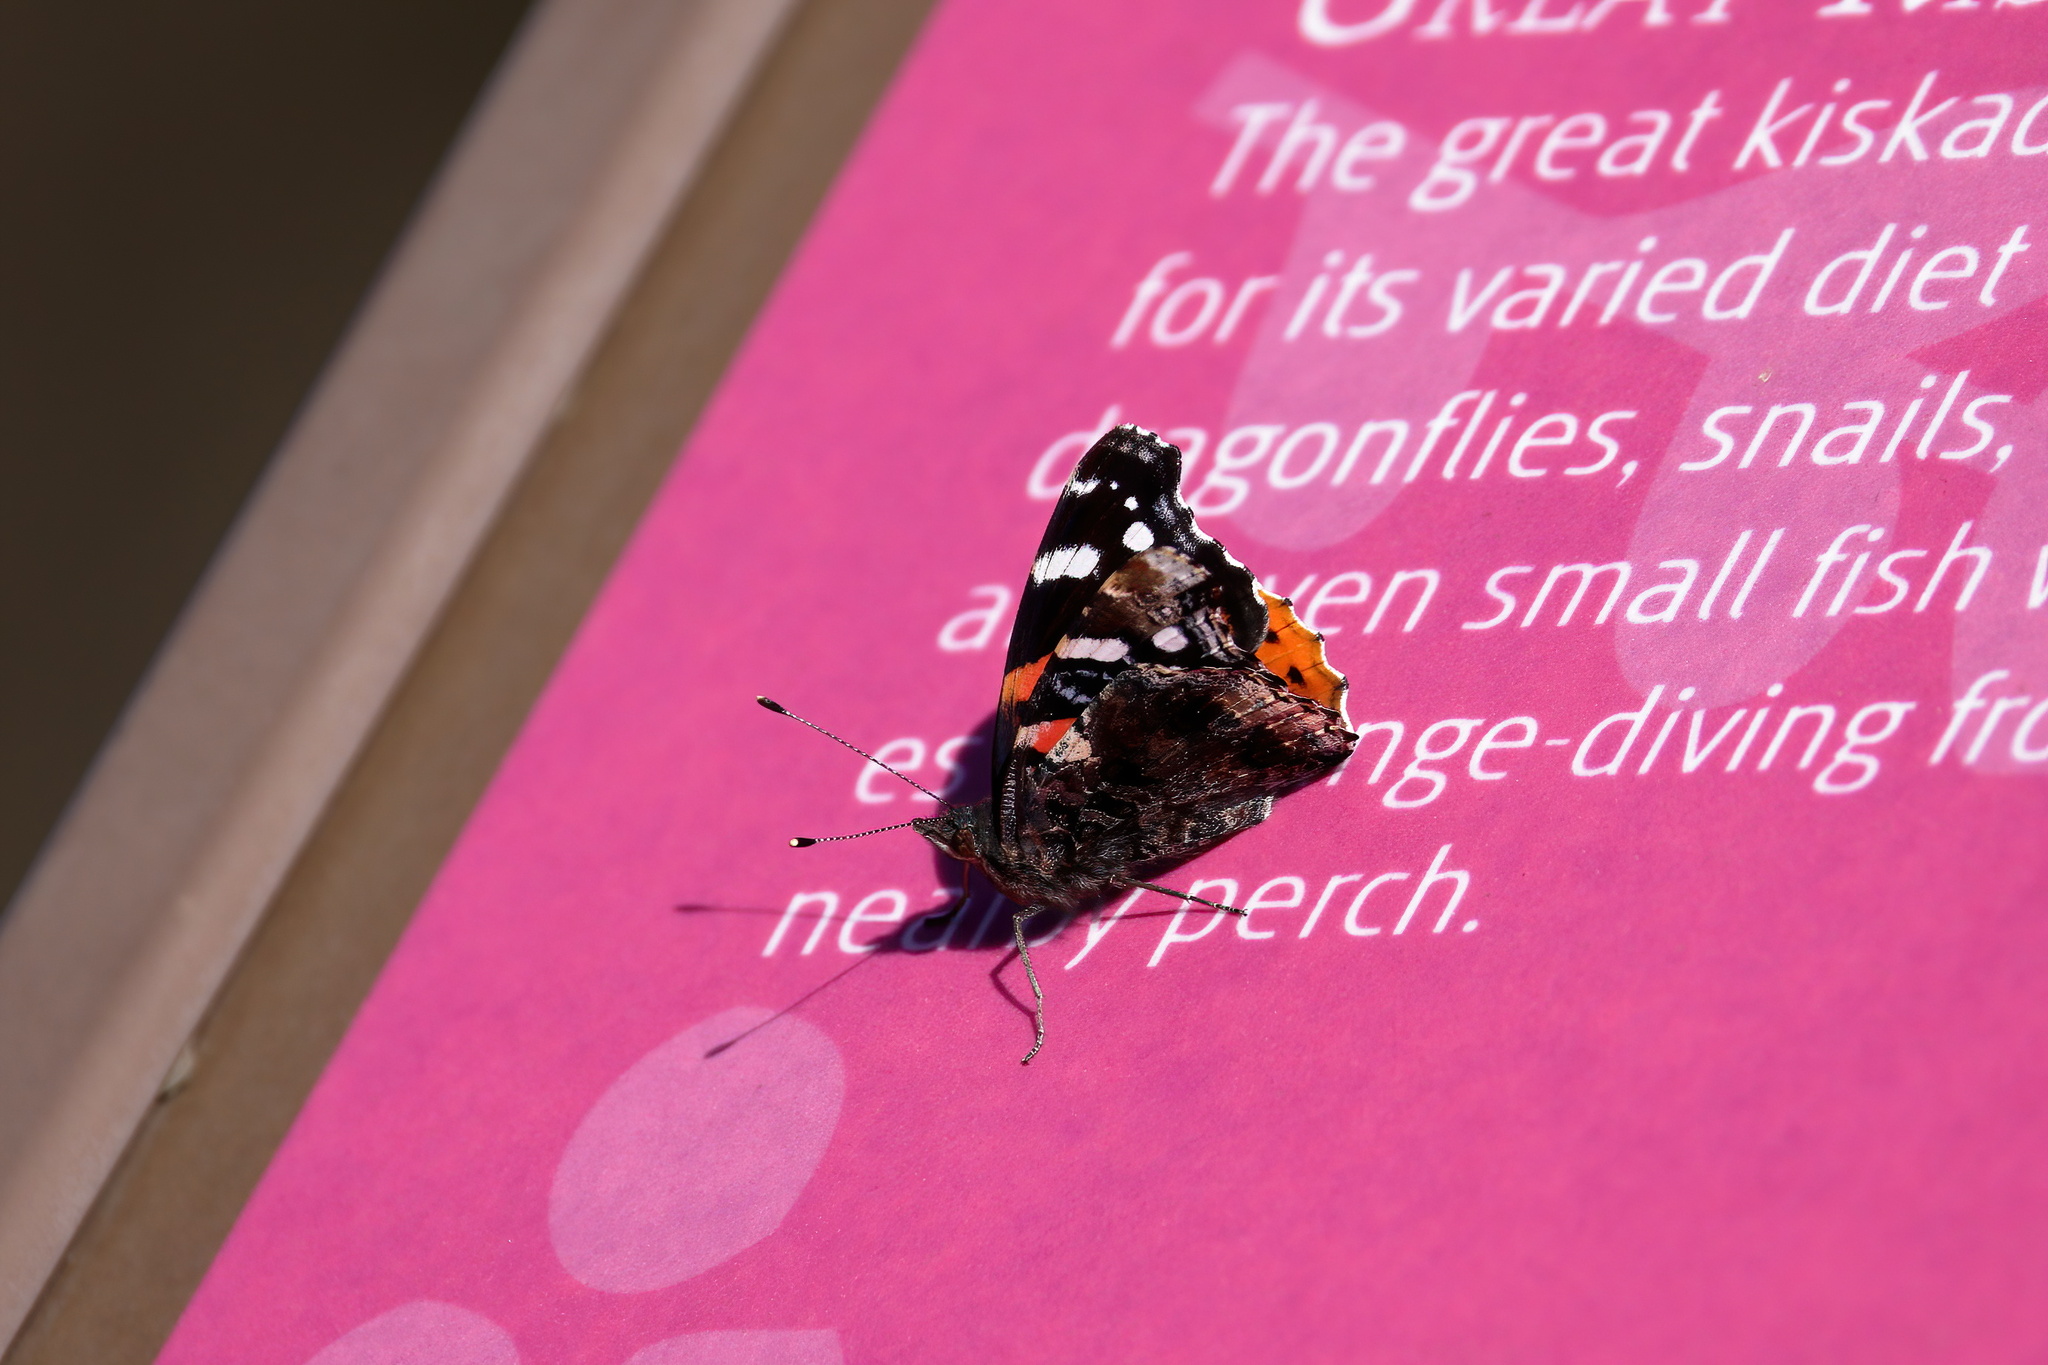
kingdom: Animalia
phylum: Arthropoda
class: Insecta
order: Lepidoptera
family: Nymphalidae
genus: Vanessa
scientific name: Vanessa atalanta
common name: Red admiral
